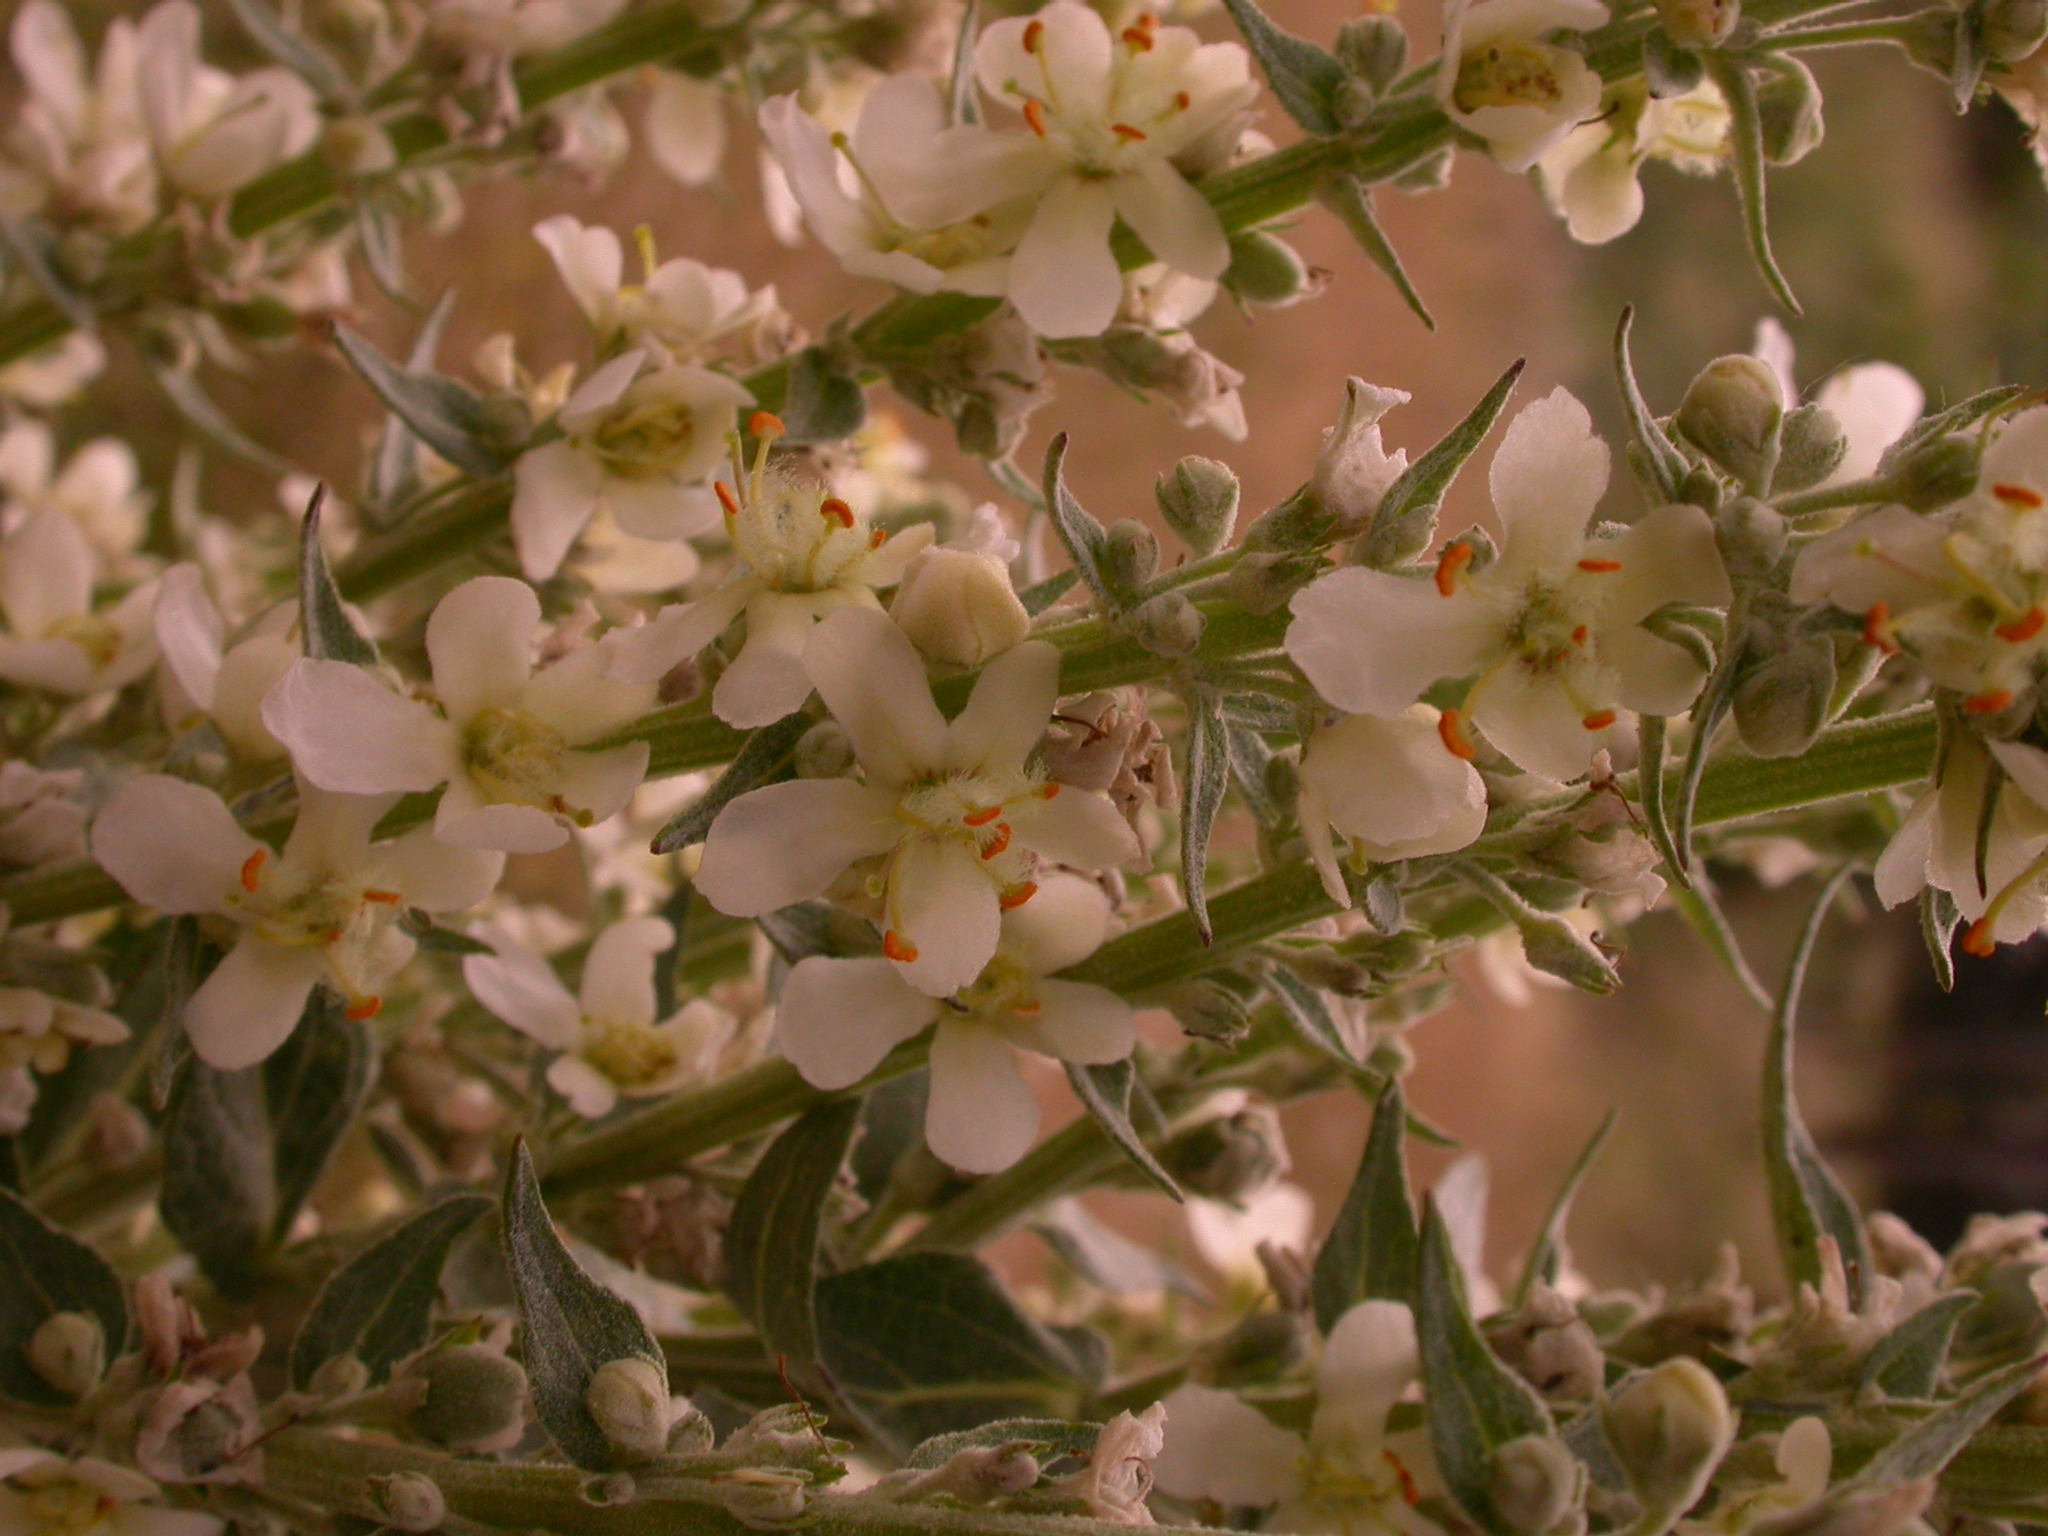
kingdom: Plantae
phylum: Tracheophyta
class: Magnoliopsida
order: Lamiales
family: Scrophulariaceae
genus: Verbascum
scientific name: Verbascum lychnitis
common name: White mullein
